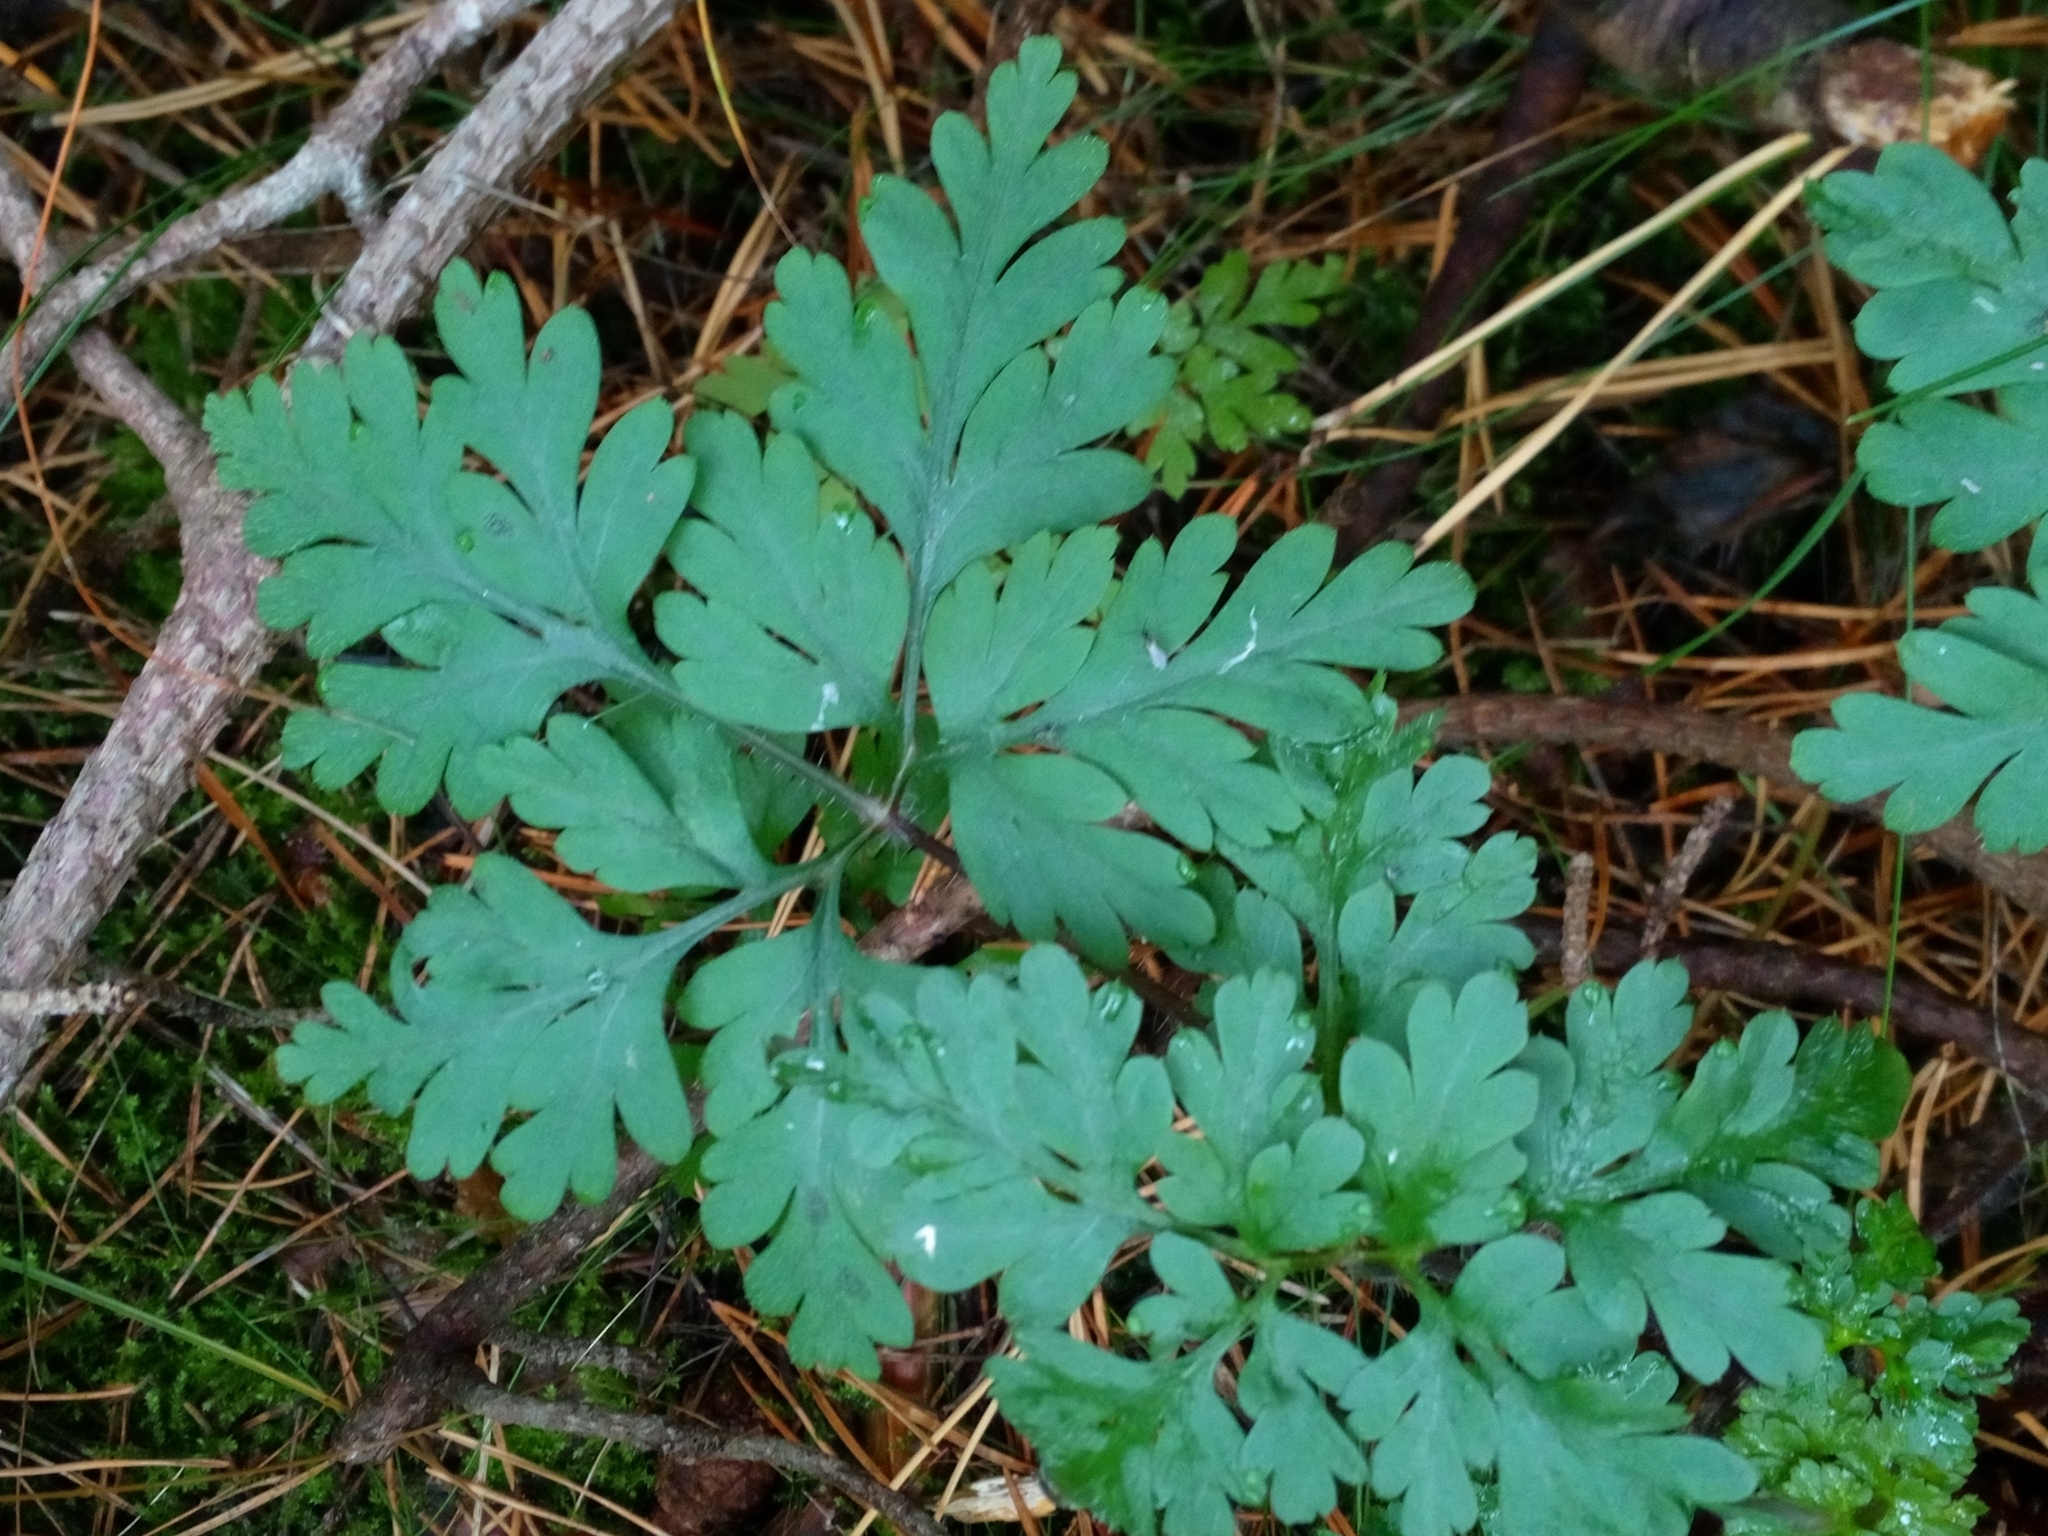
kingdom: Plantae
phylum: Tracheophyta
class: Magnoliopsida
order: Geraniales
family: Geraniaceae
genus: Geranium
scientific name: Geranium robertianum
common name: Herb-robert
